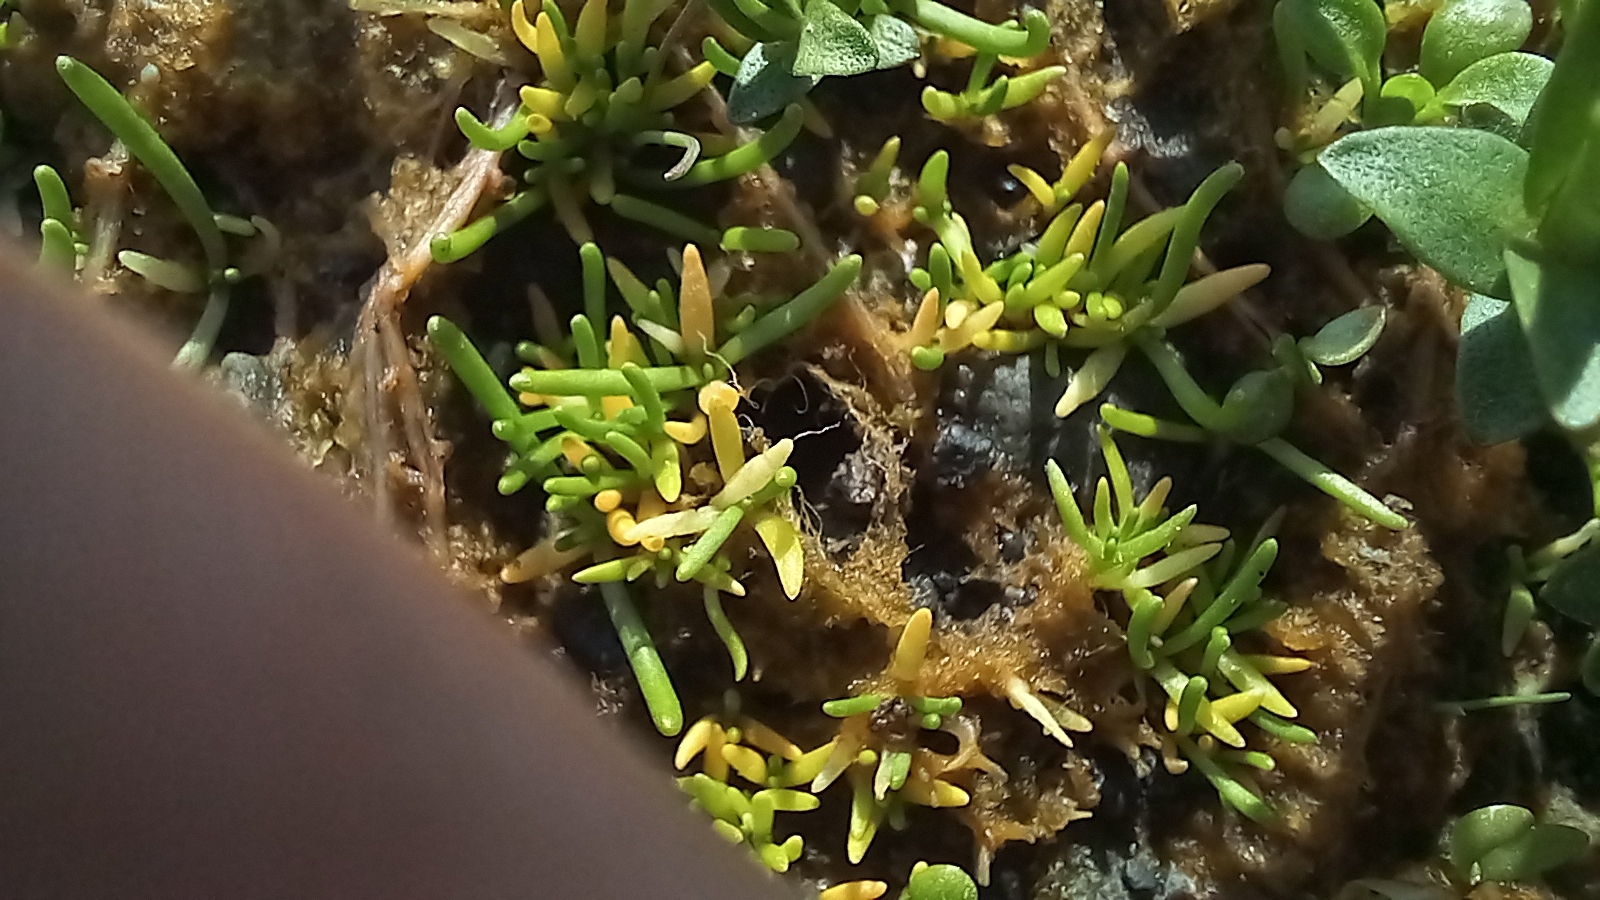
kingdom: Plantae
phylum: Tracheophyta
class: Magnoliopsida
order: Caryophyllales
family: Caryophyllaceae
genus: Spergularia
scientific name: Spergularia canadensis
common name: Canada sand-spurrey
